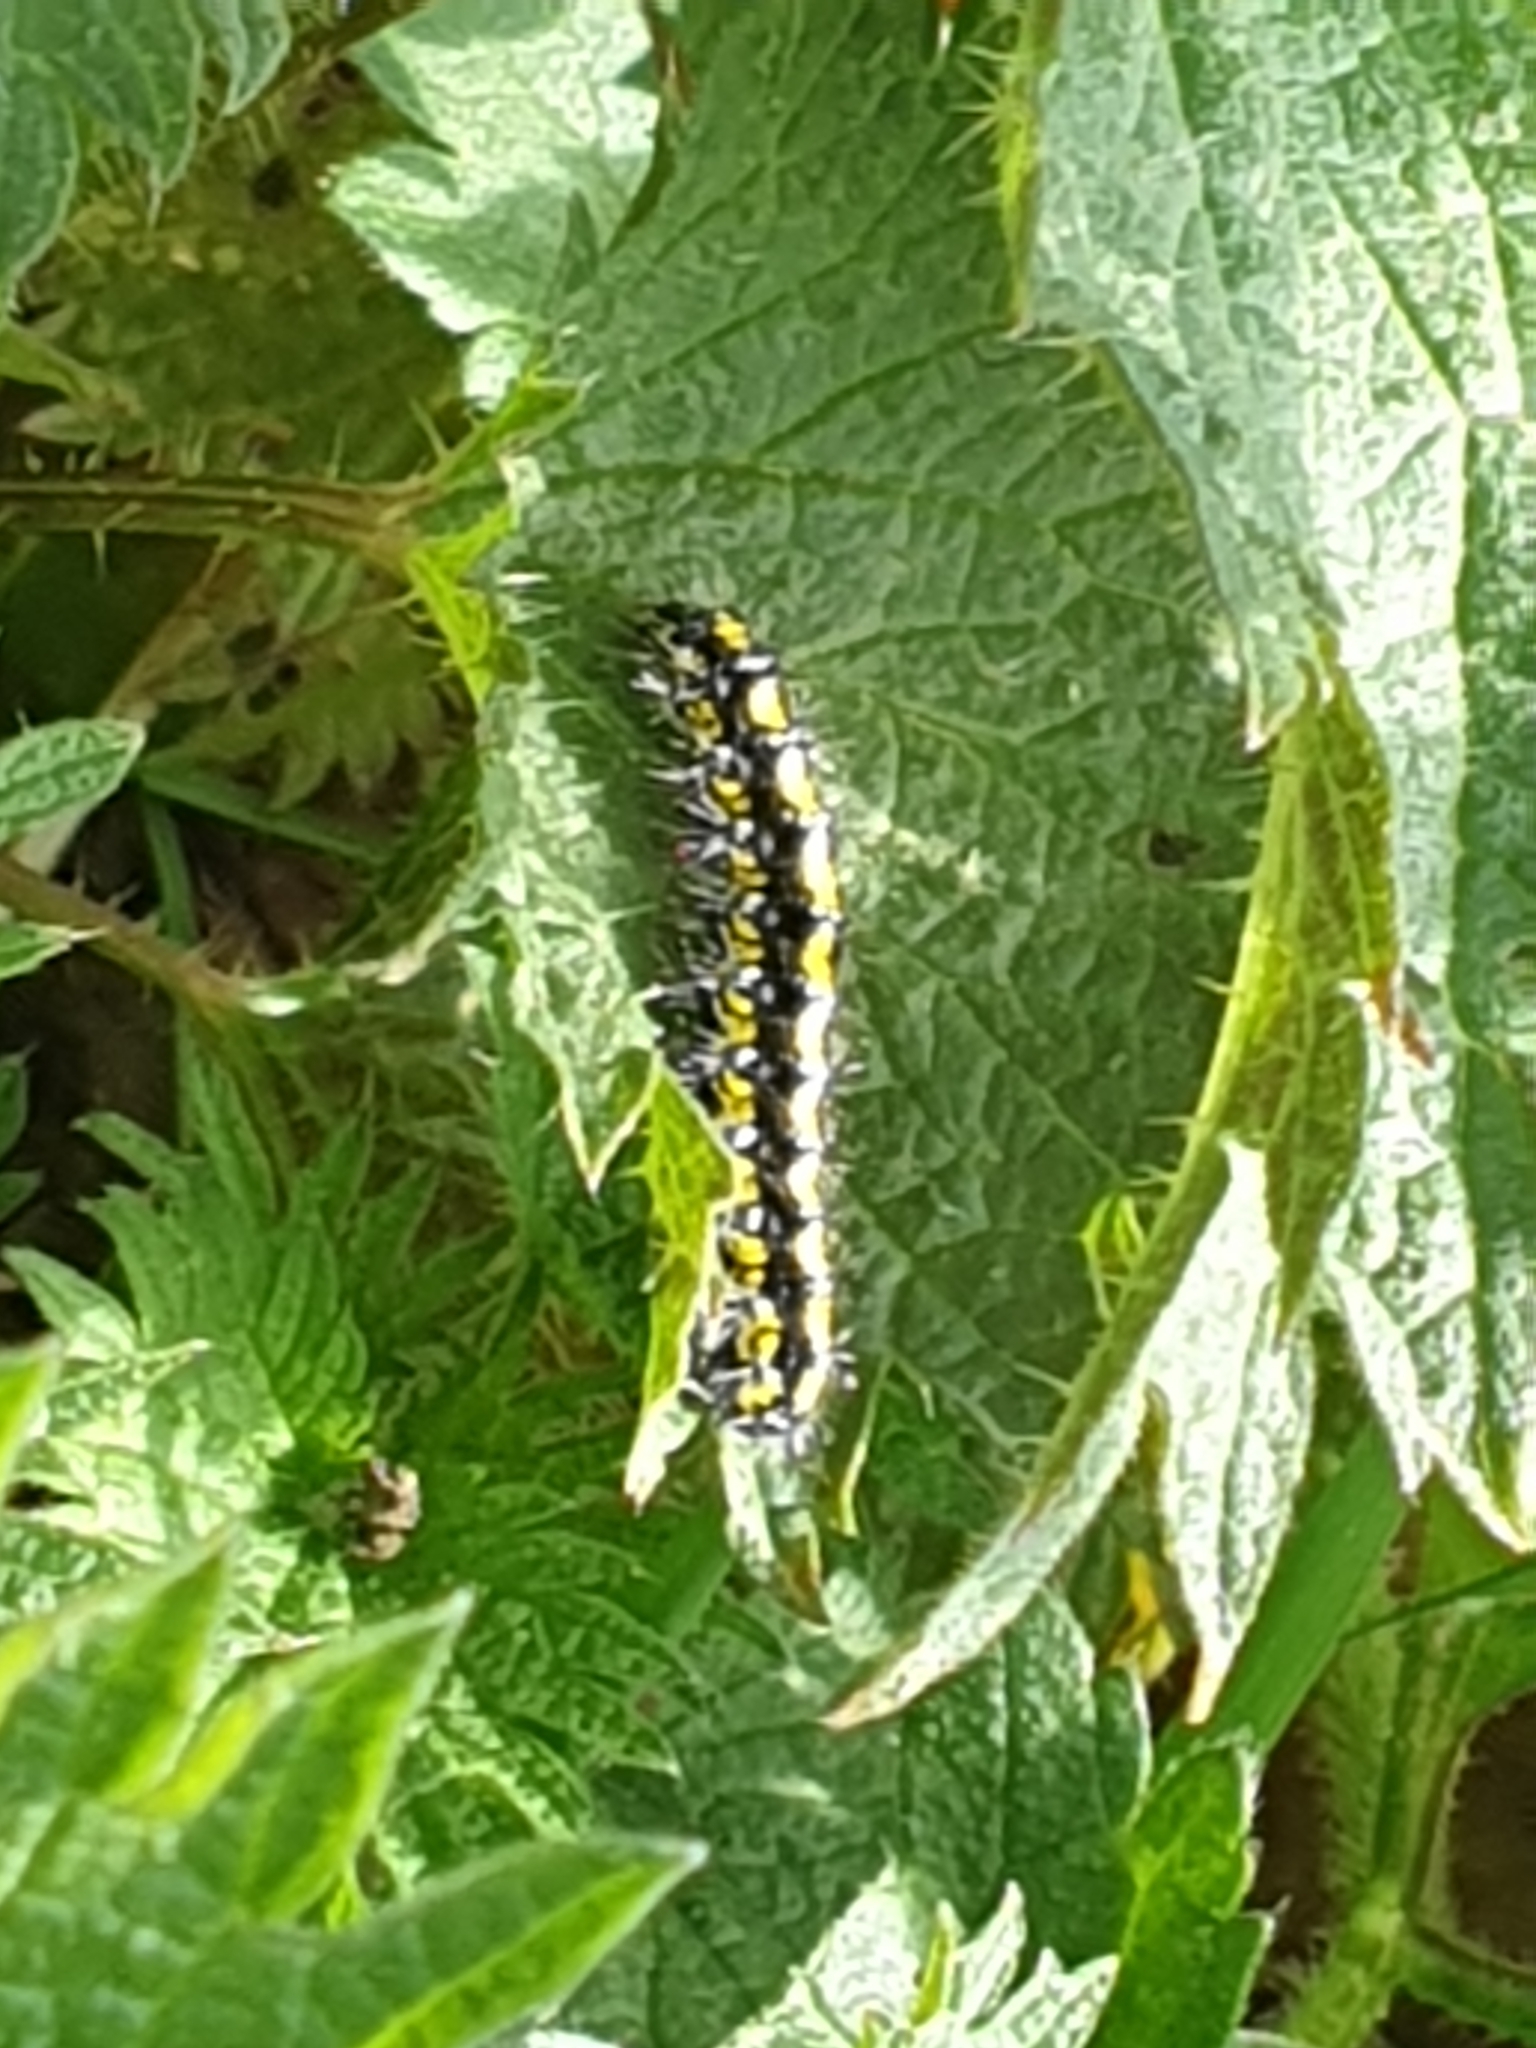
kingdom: Animalia
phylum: Arthropoda
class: Insecta
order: Lepidoptera
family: Erebidae
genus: Callimorpha
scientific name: Callimorpha dominula
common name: Scarlet tiger
